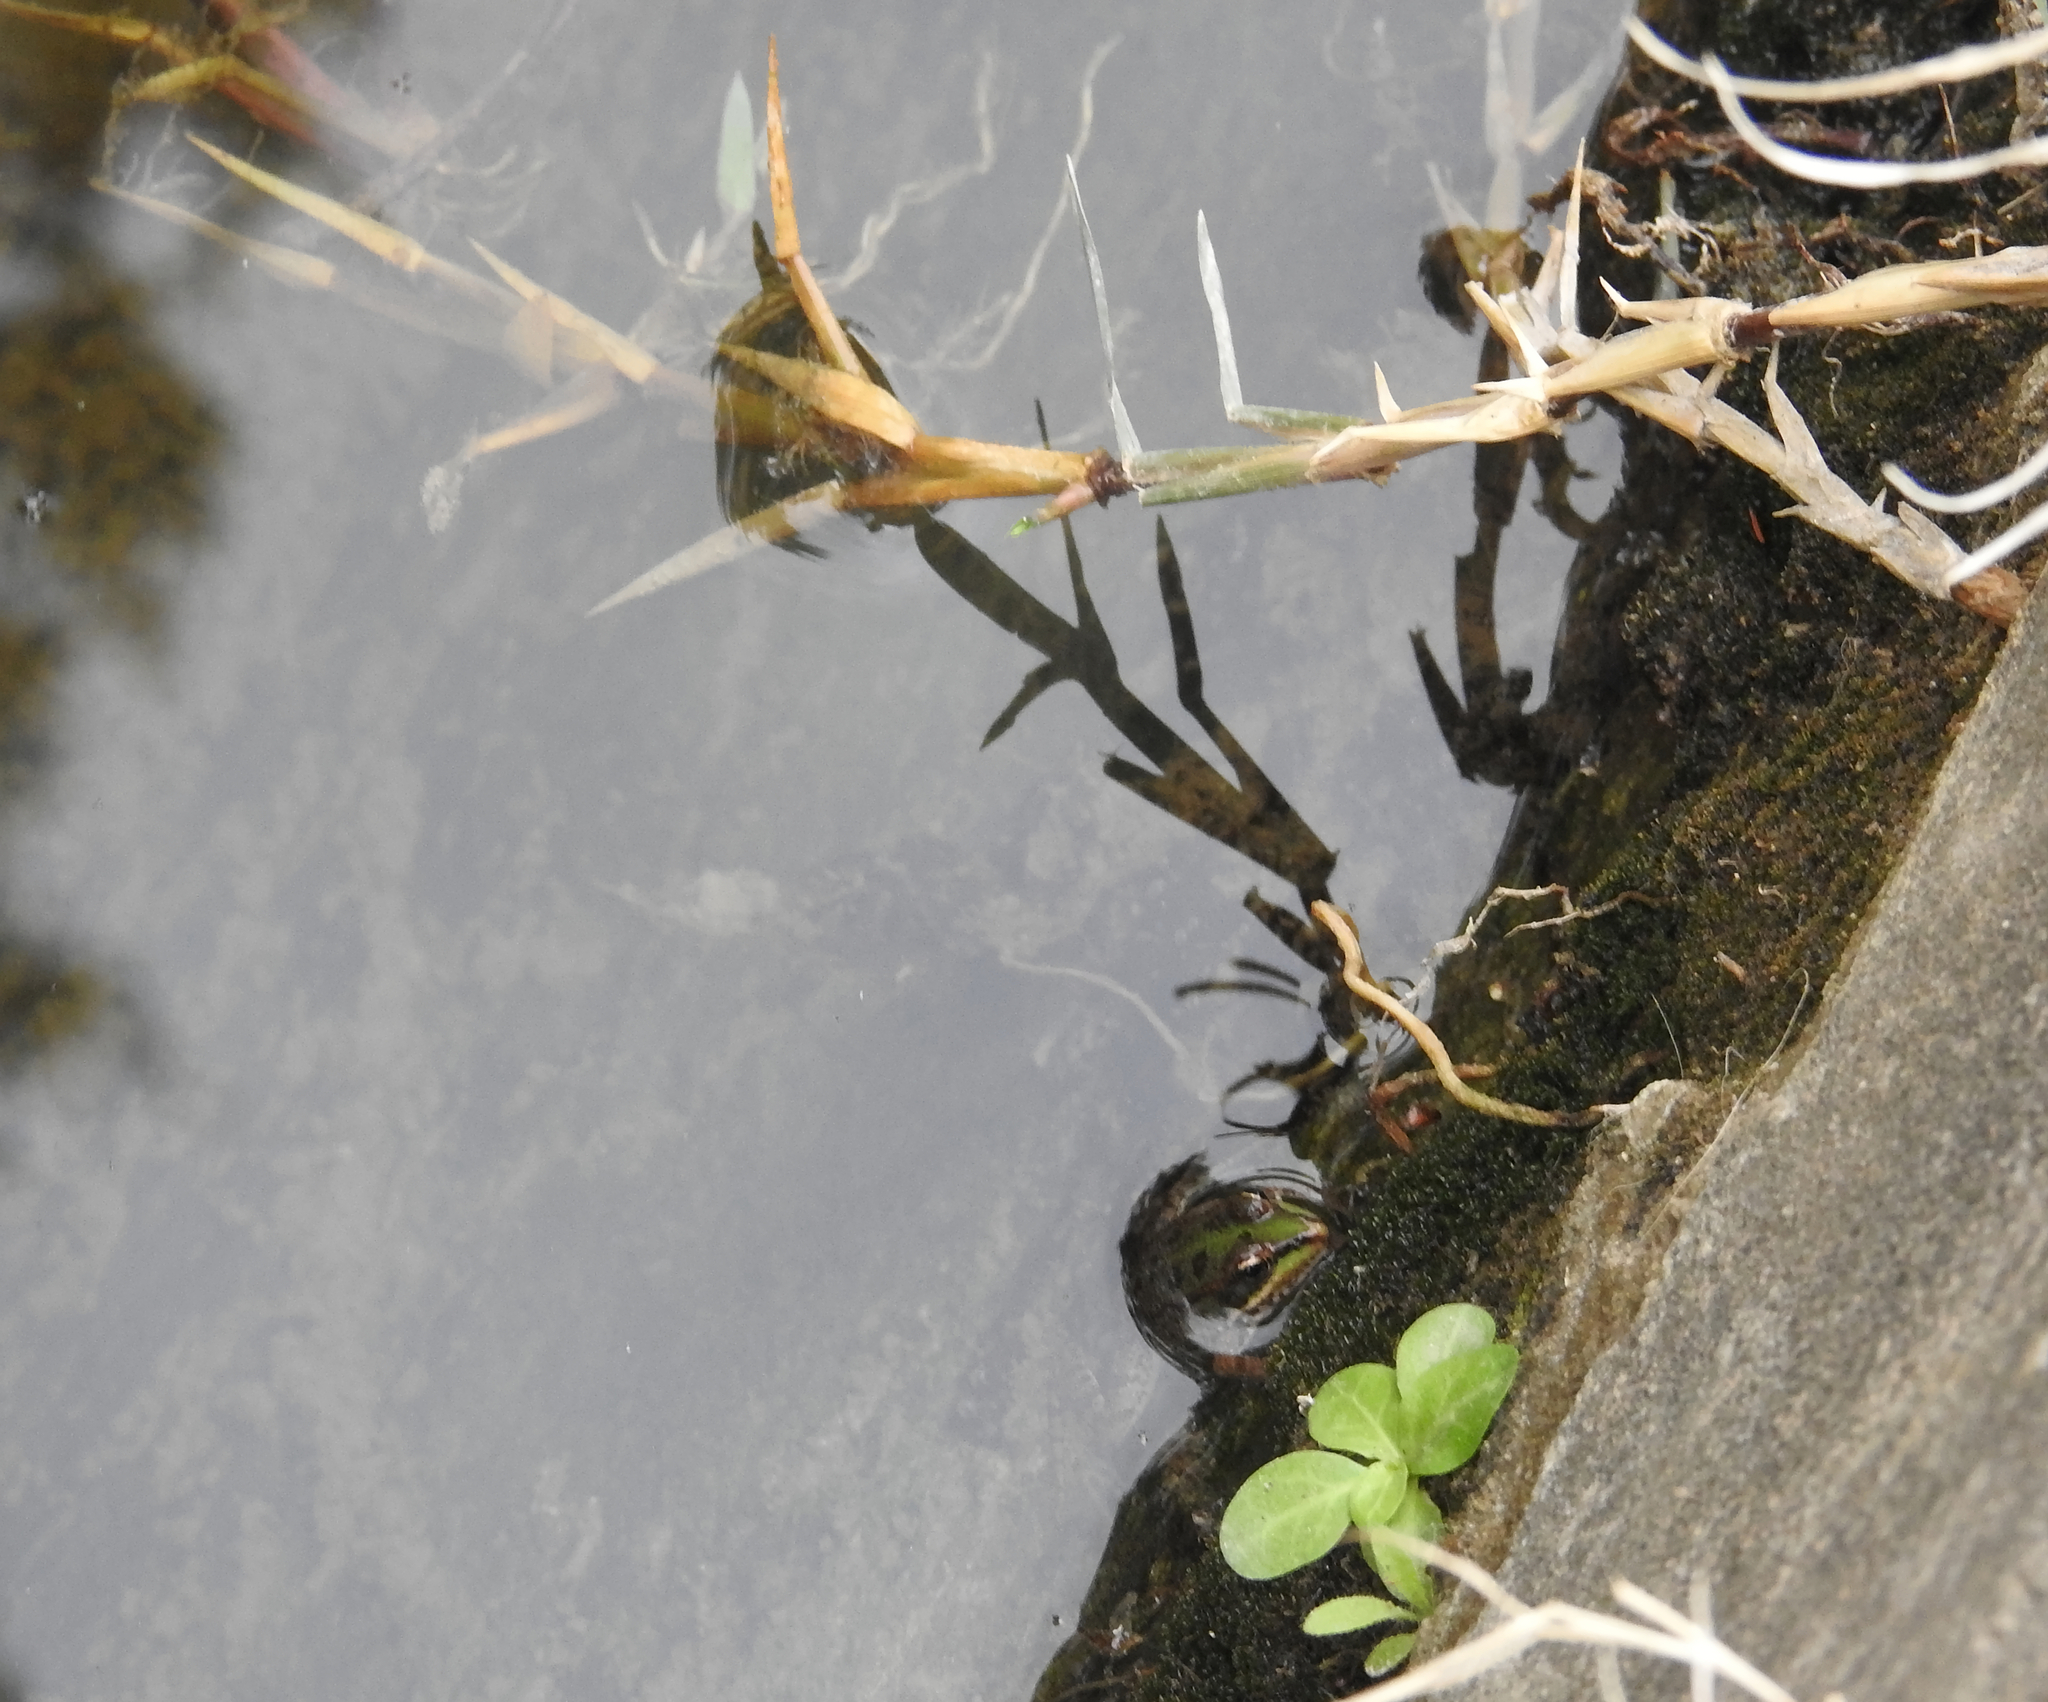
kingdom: Animalia
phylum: Chordata
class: Amphibia
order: Anura
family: Ranidae
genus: Pelophylax
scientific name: Pelophylax perezi
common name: Perez's frog
